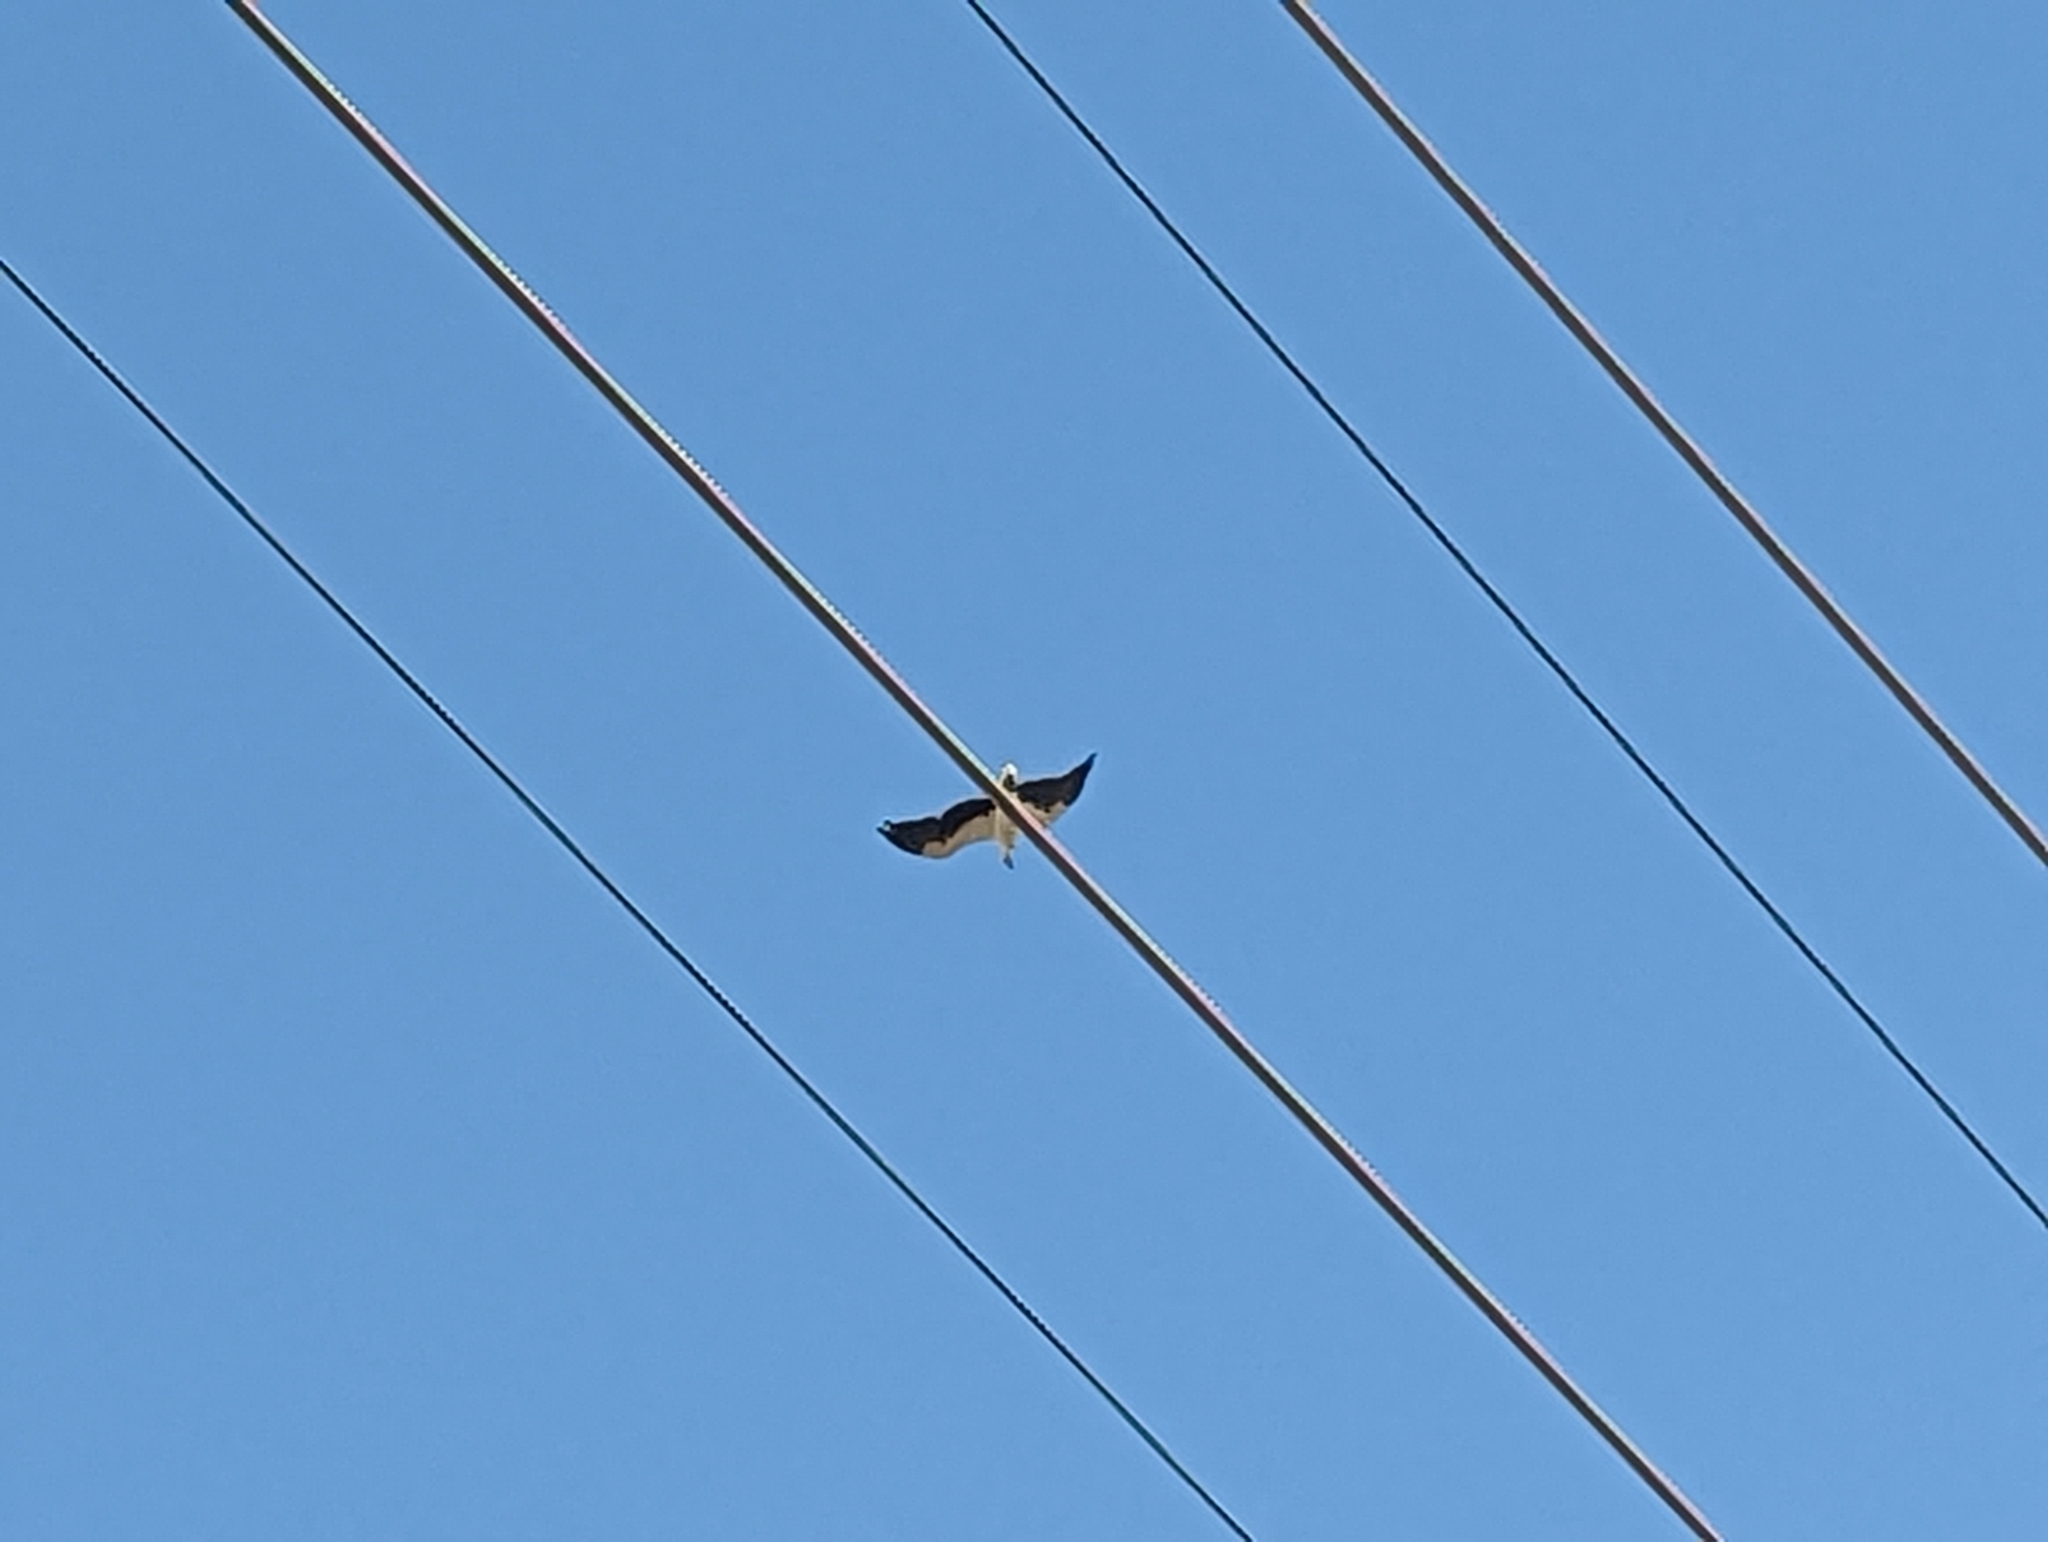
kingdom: Animalia
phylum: Chordata
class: Aves
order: Accipitriformes
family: Accipitridae
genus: Haliaeetus
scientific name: Haliaeetus leucogaster
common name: White-bellied sea eagle
